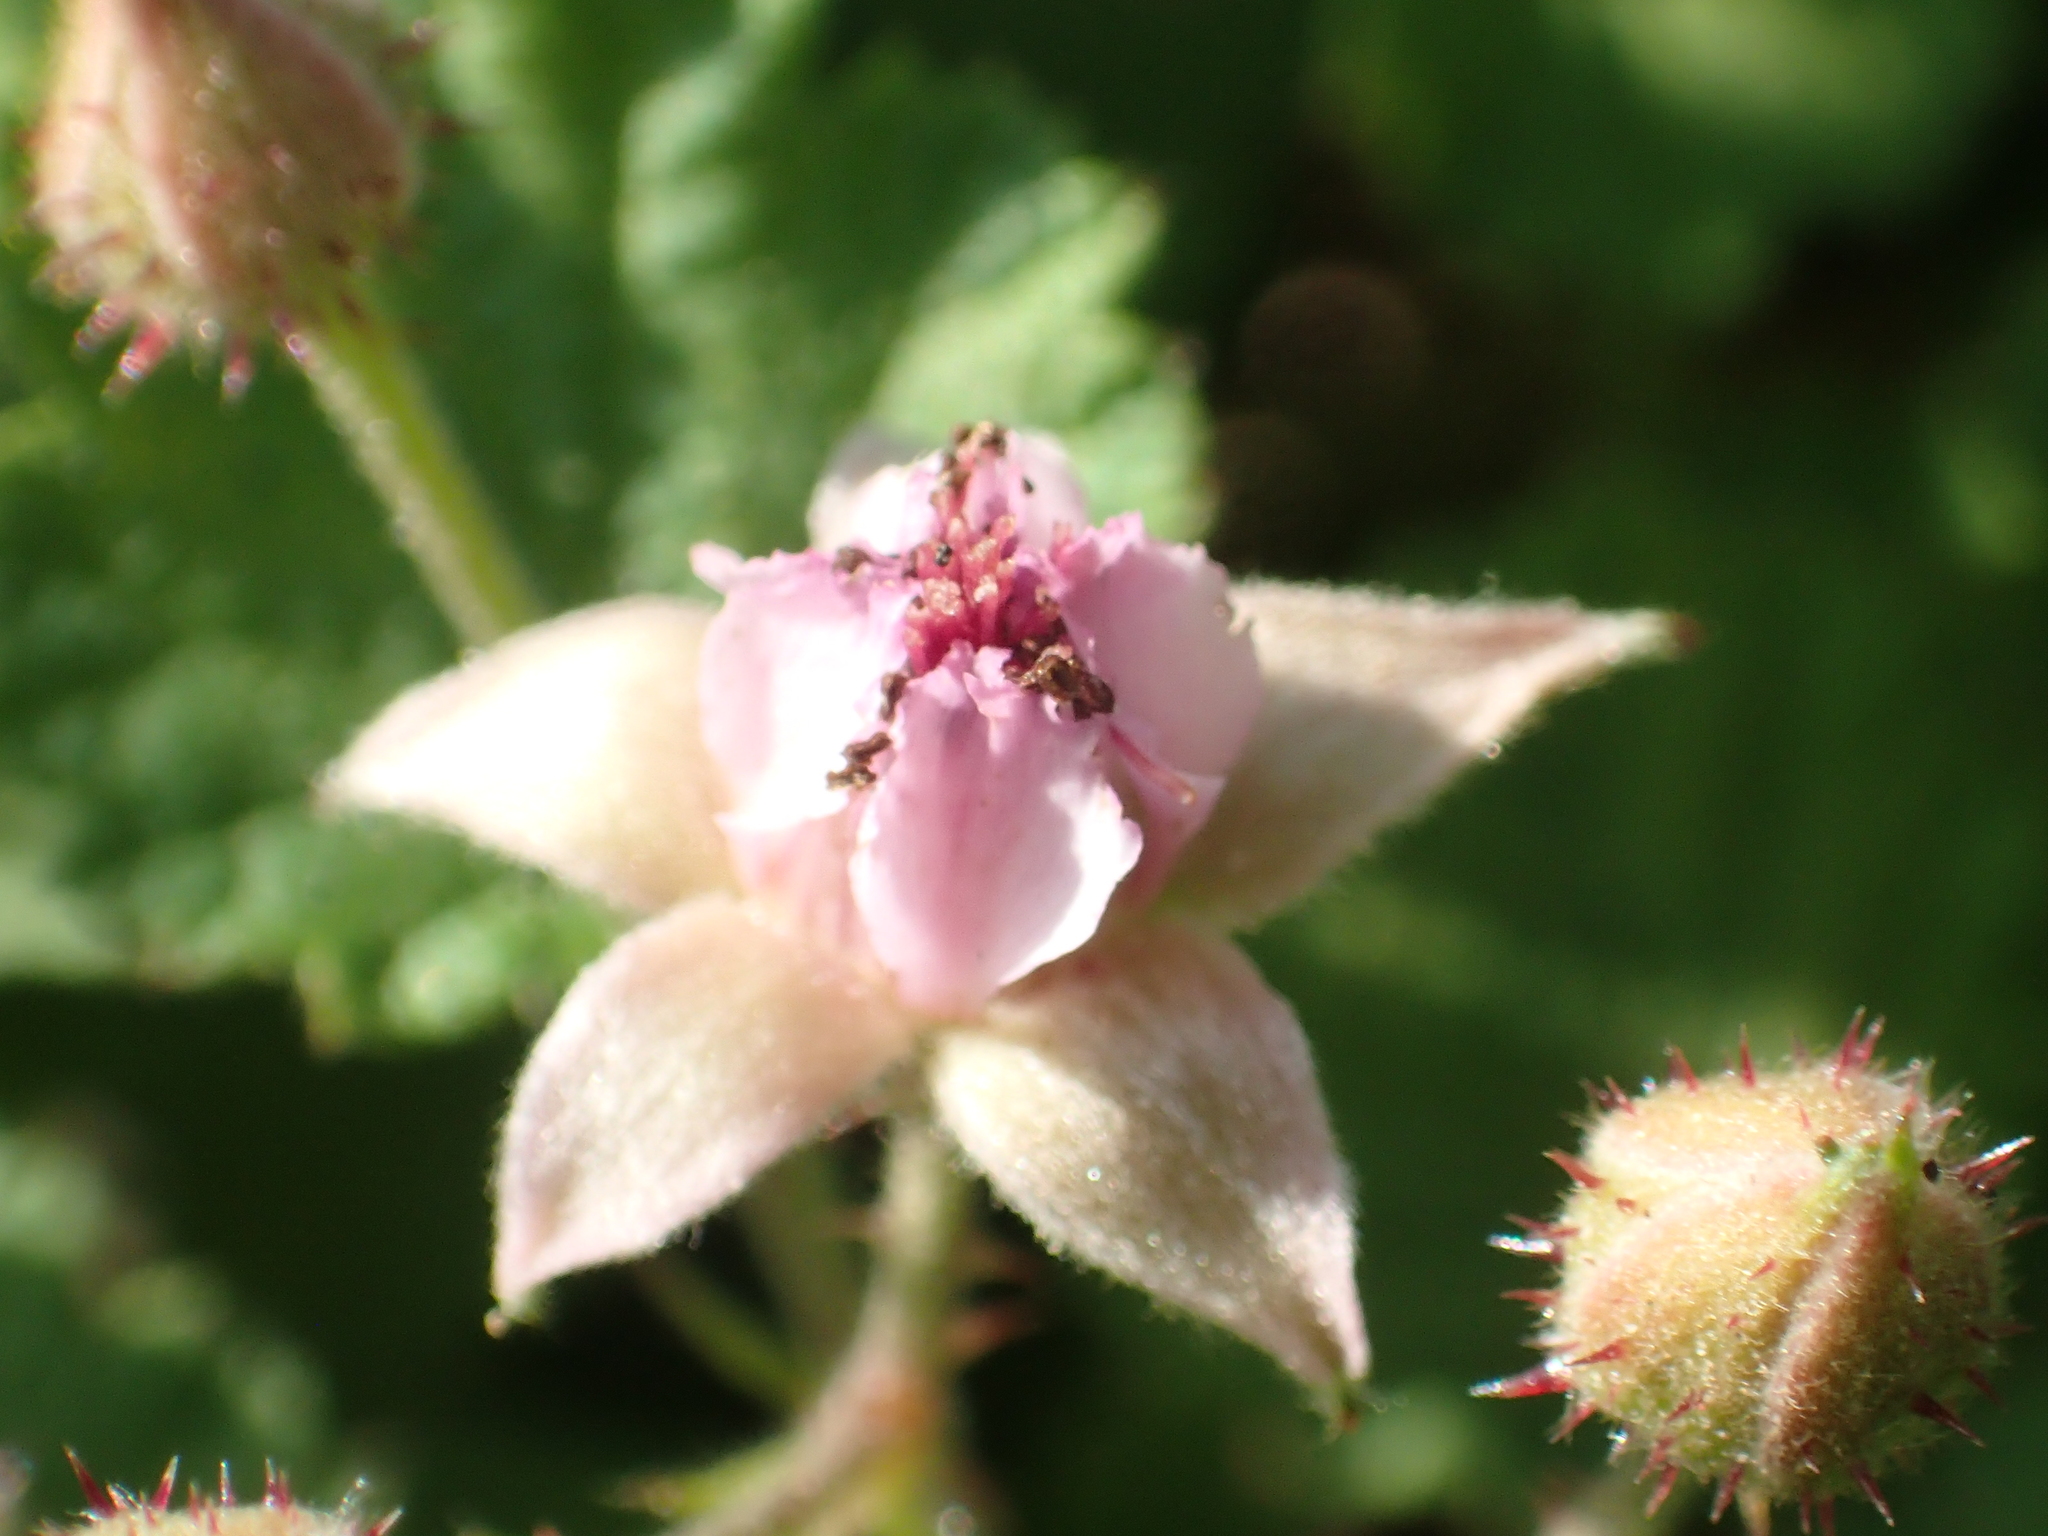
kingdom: Plantae
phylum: Tracheophyta
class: Magnoliopsida
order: Rosales
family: Rosaceae
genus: Rubus
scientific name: Rubus parvifolius
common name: Threeleaf blackberry
